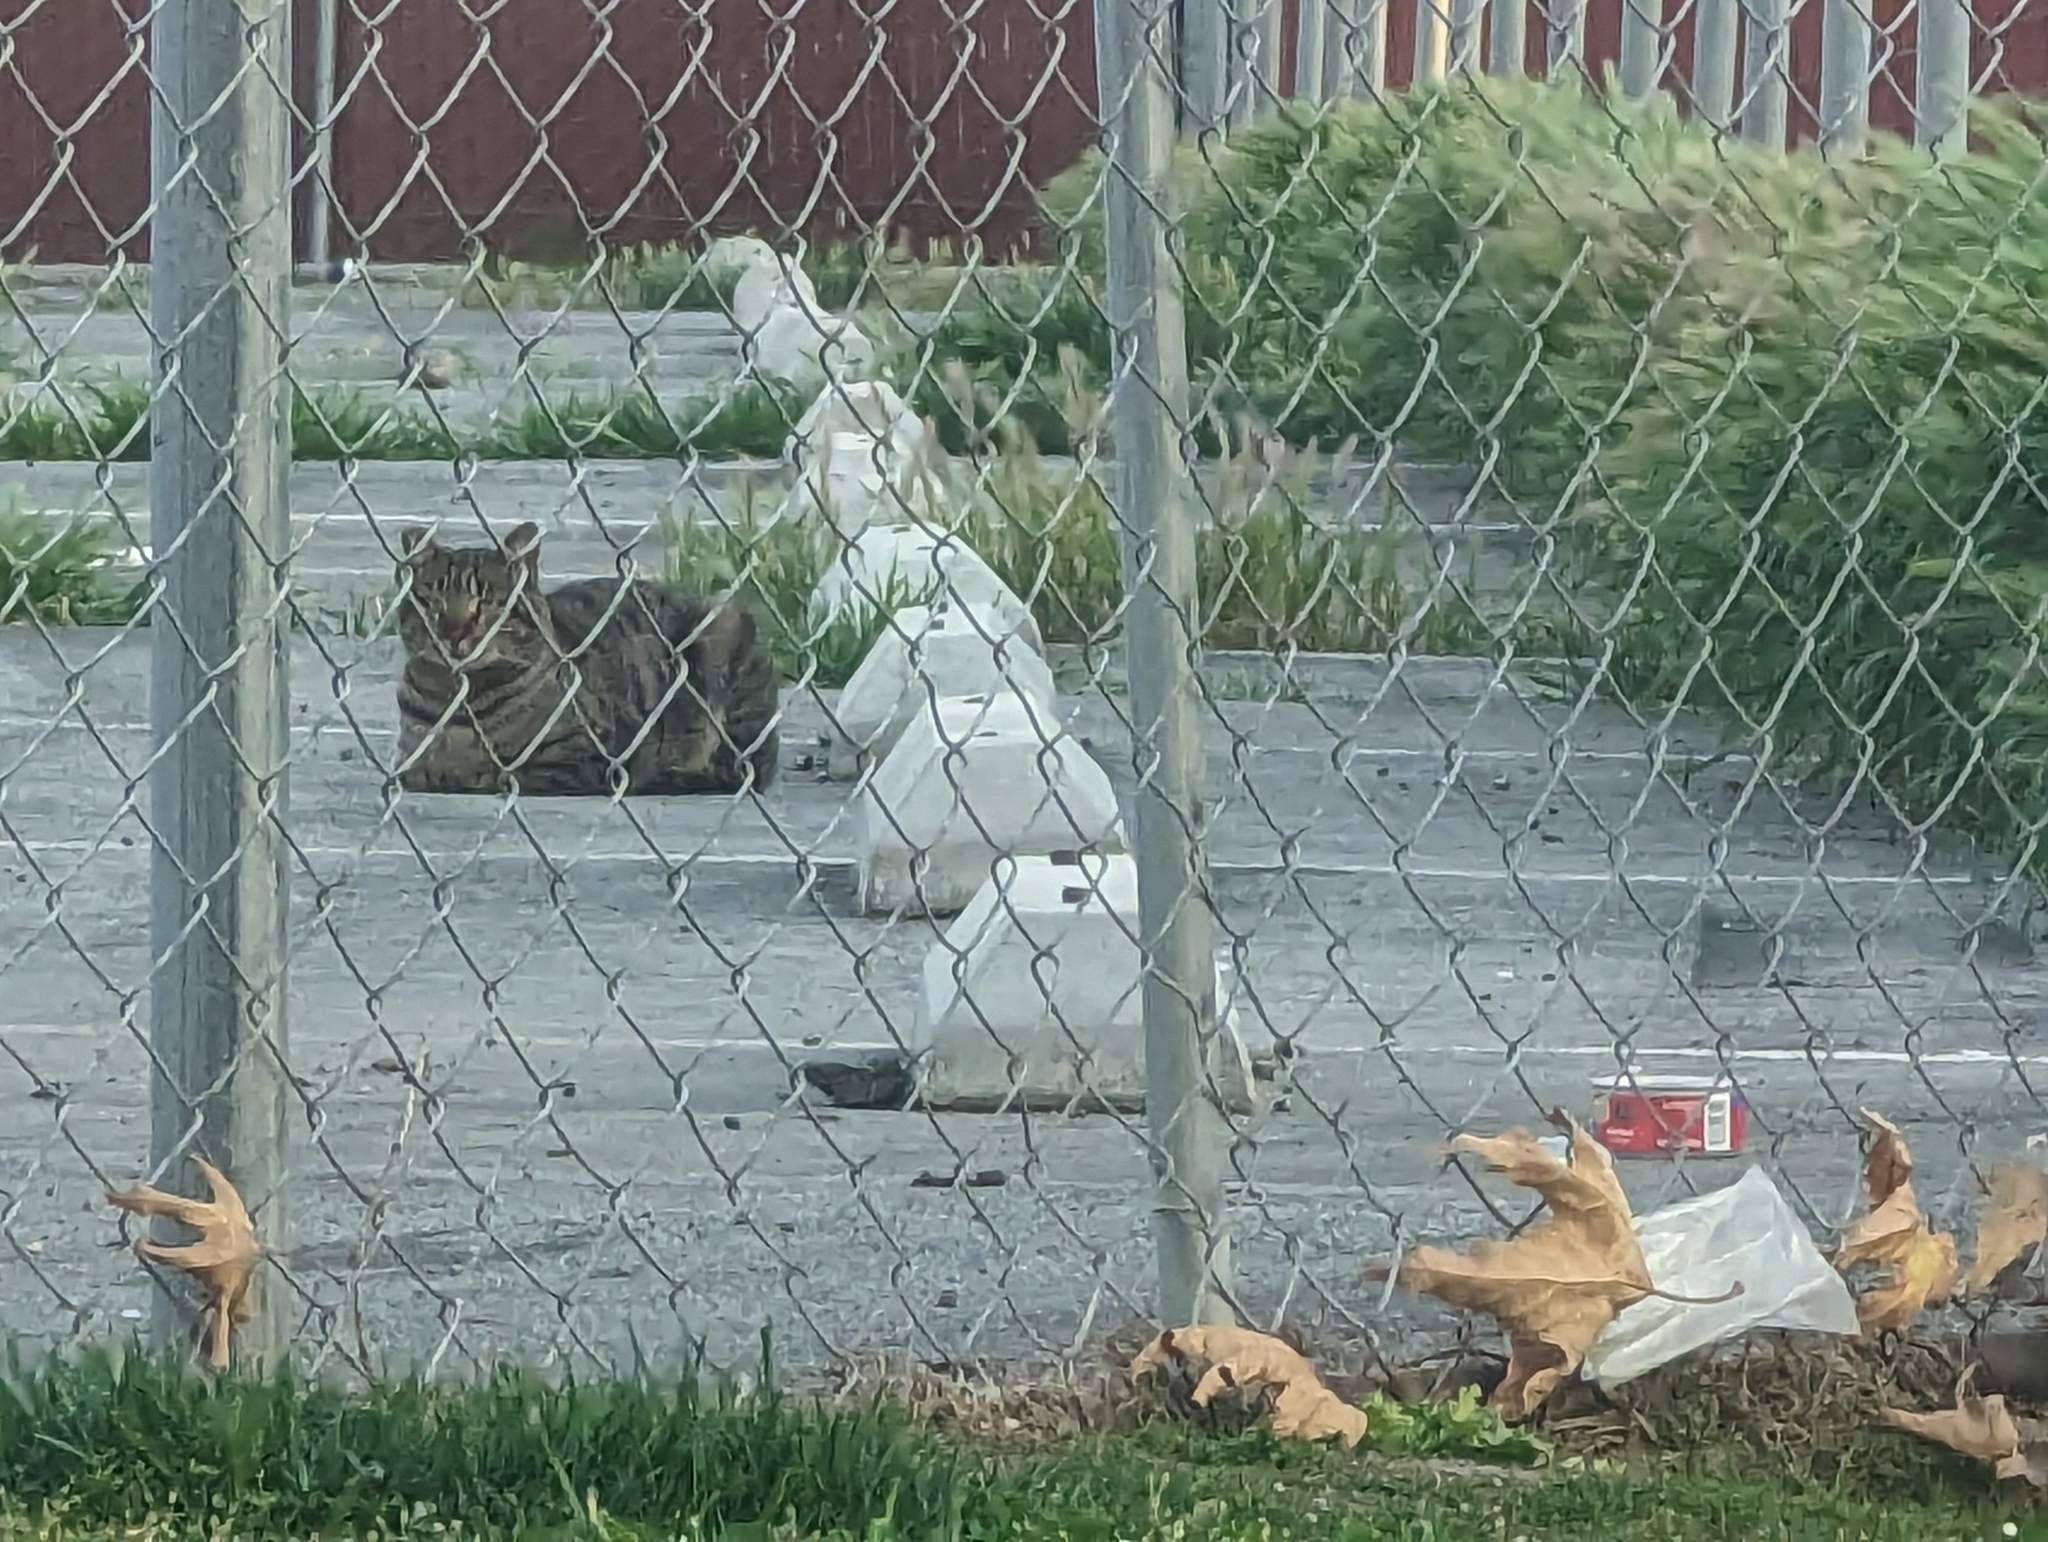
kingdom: Animalia
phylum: Chordata
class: Mammalia
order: Carnivora
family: Felidae
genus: Felis
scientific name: Felis catus
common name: Domestic cat
